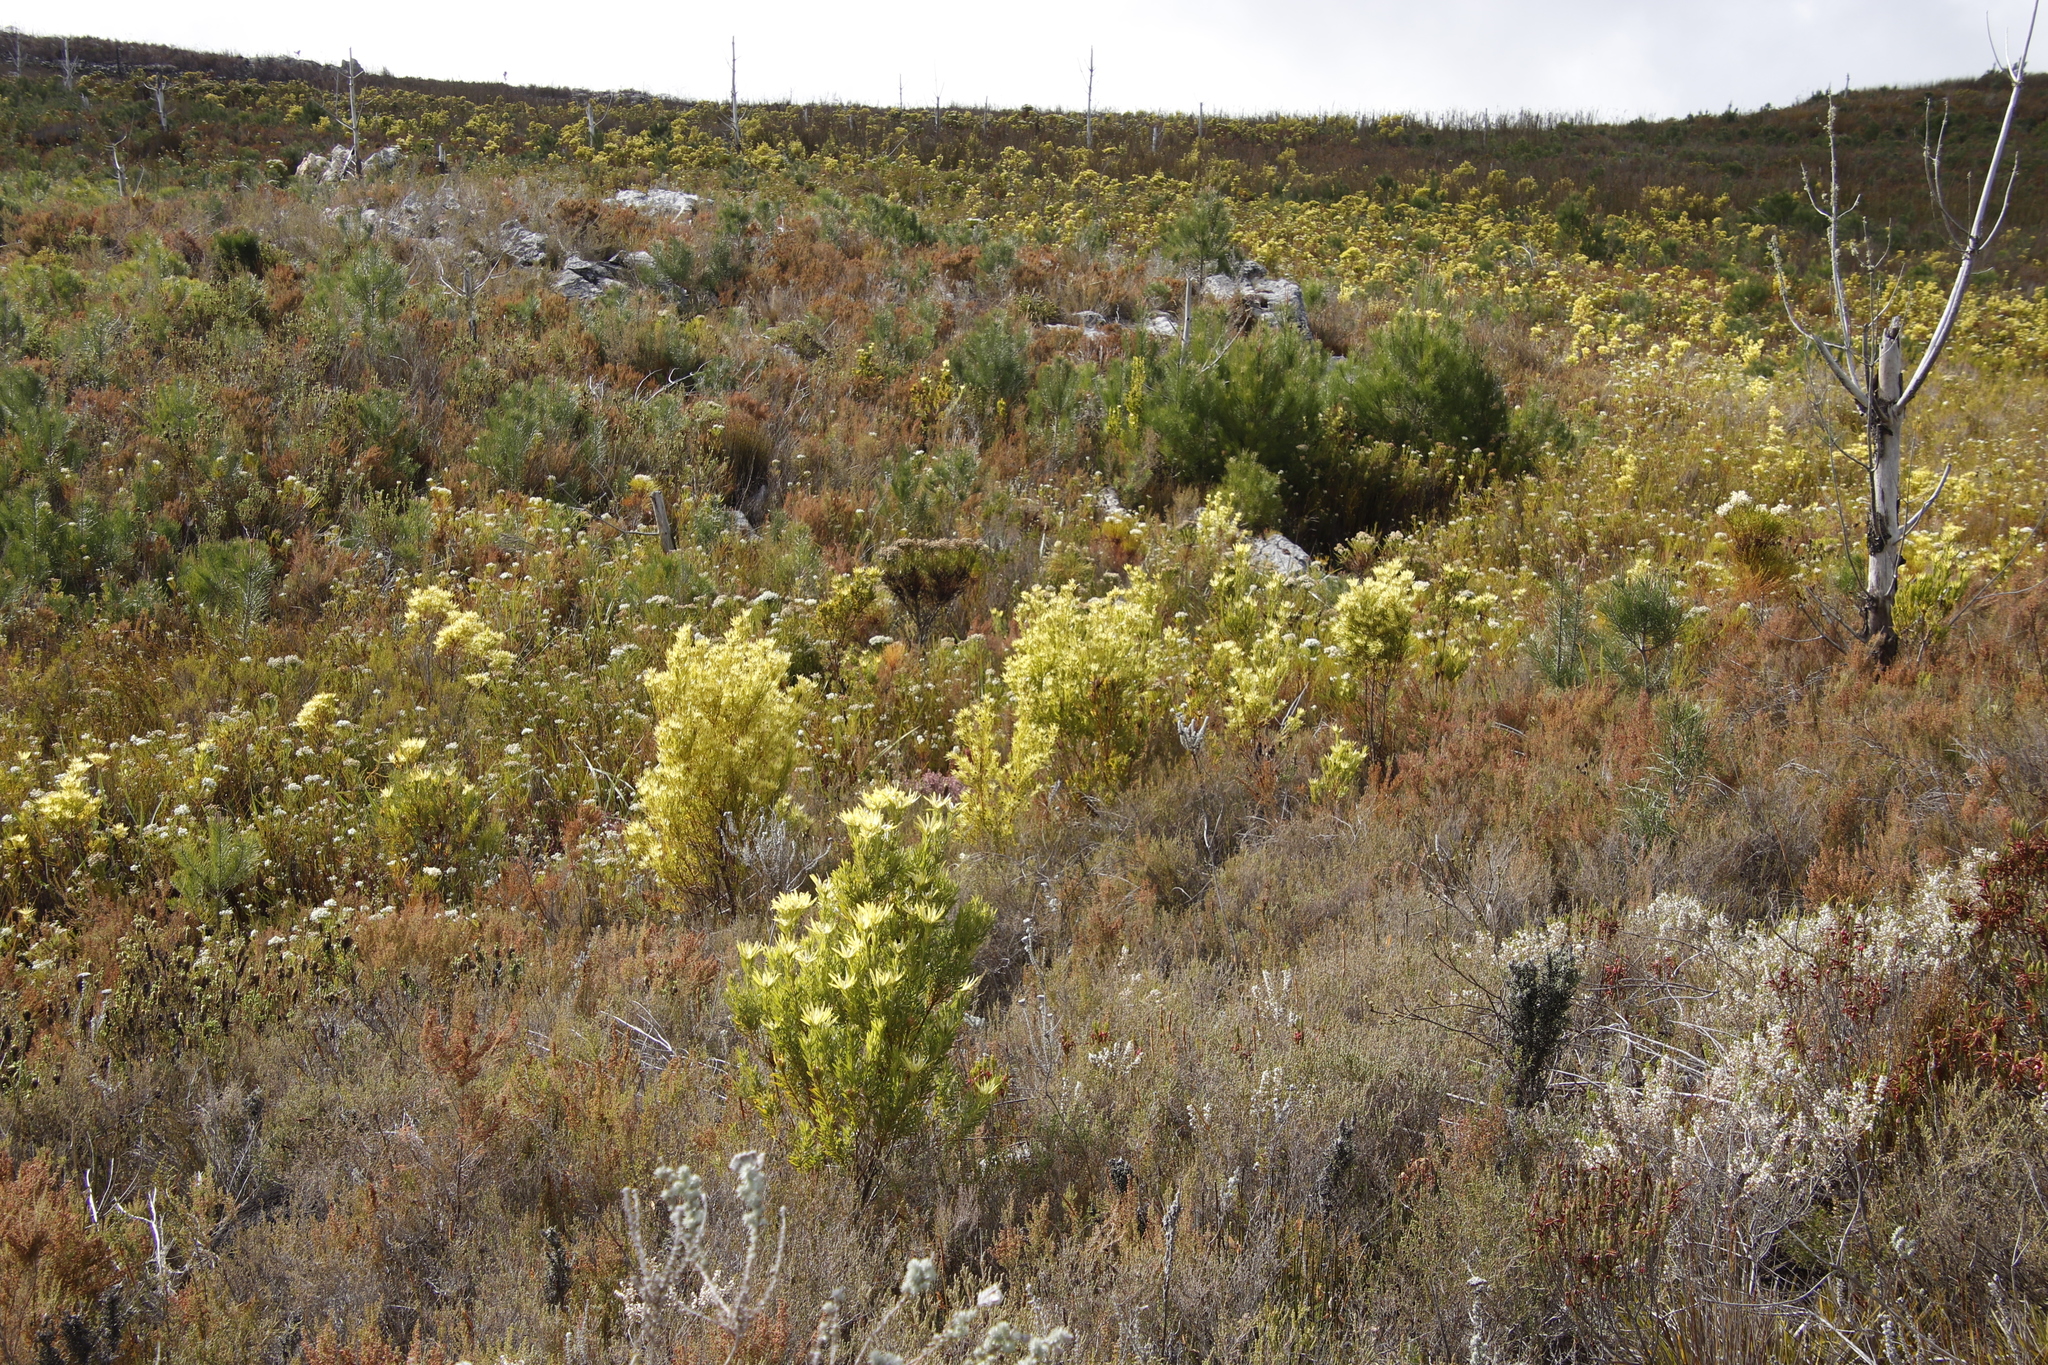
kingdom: Plantae
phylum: Tracheophyta
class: Magnoliopsida
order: Proteales
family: Proteaceae
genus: Leucadendron
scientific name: Leucadendron xanthoconus
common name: Sickle-leaf conebush
